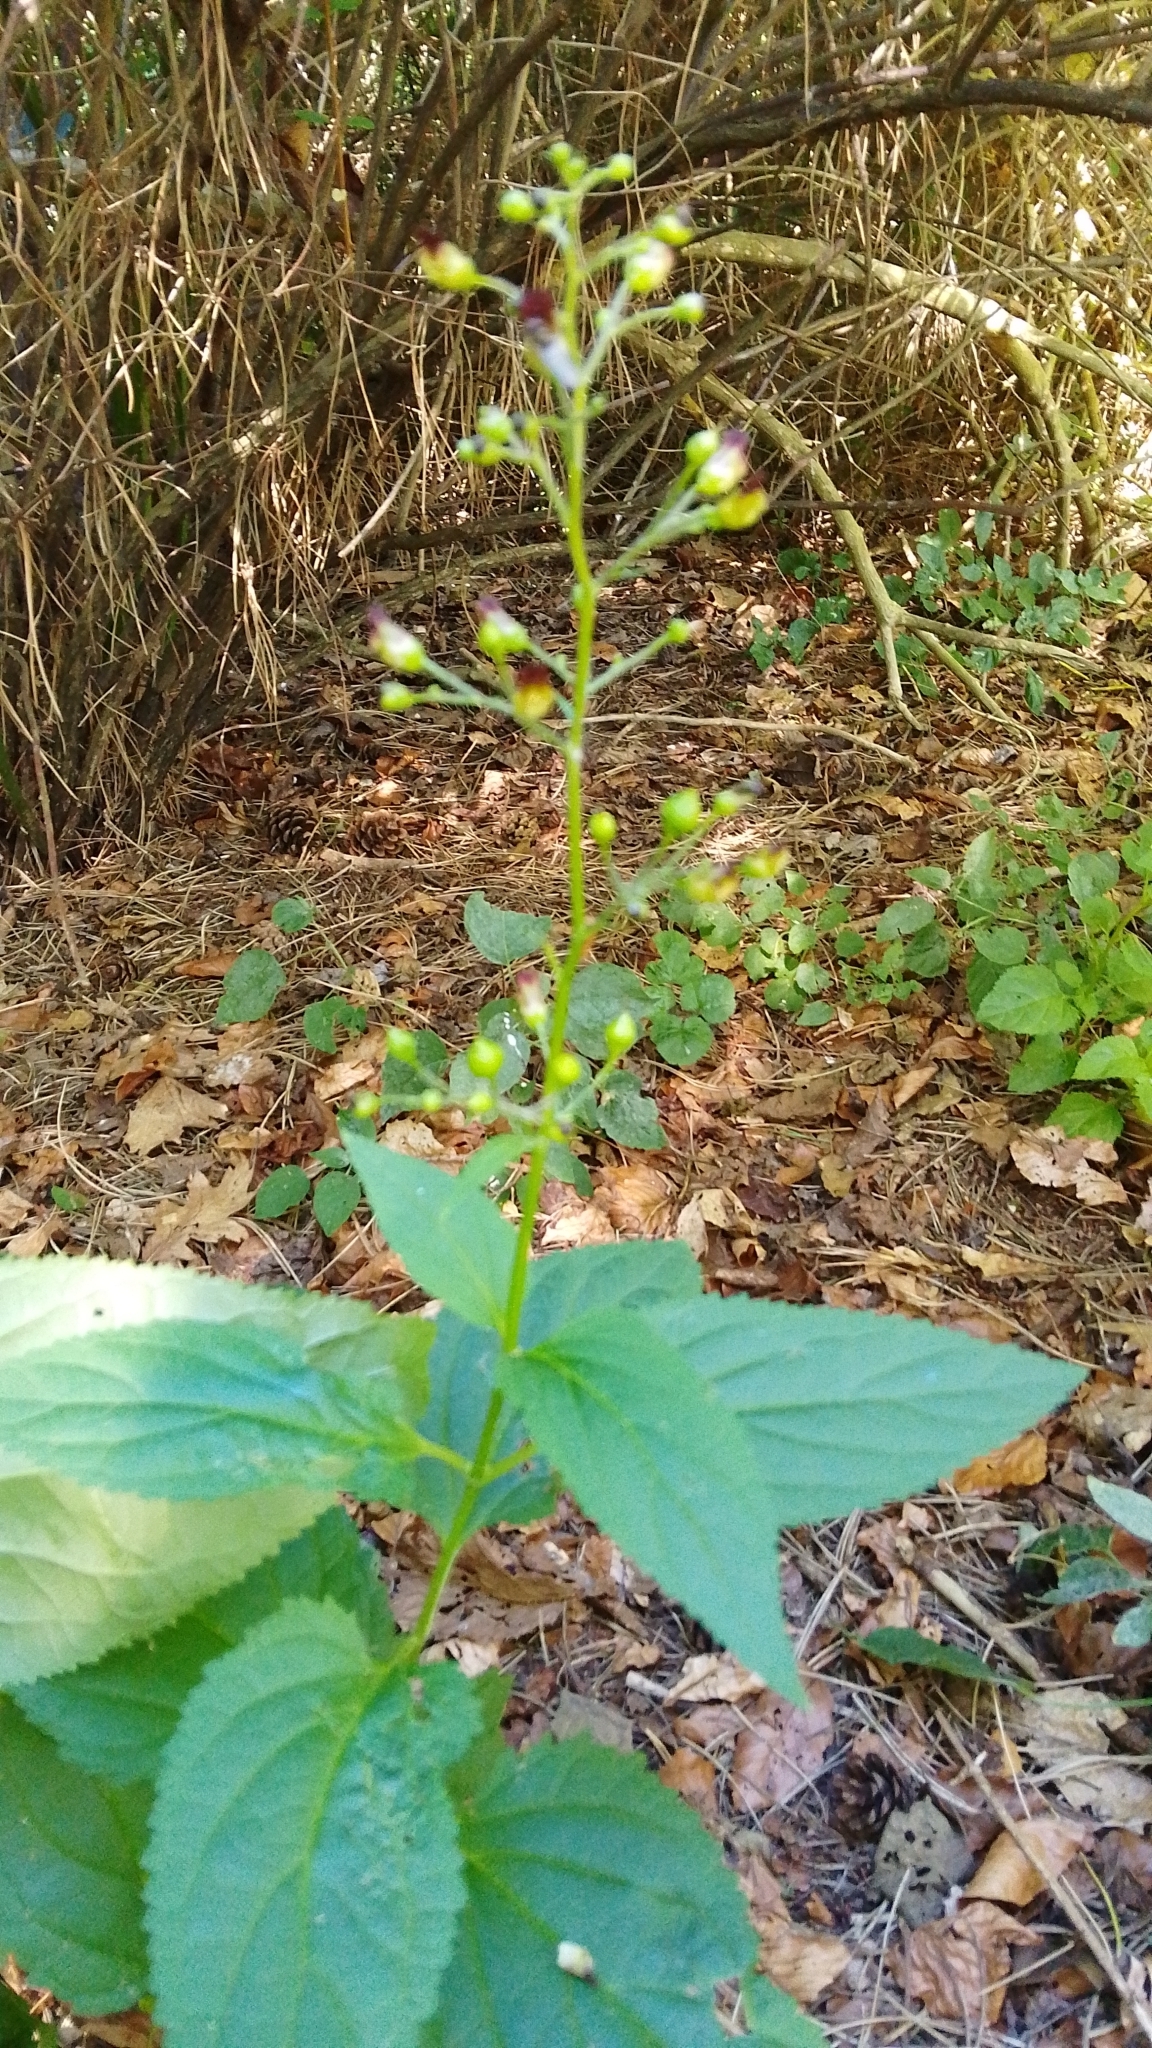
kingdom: Plantae
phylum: Tracheophyta
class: Magnoliopsida
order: Lamiales
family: Scrophulariaceae
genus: Scrophularia
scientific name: Scrophularia nodosa
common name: Common figwort
